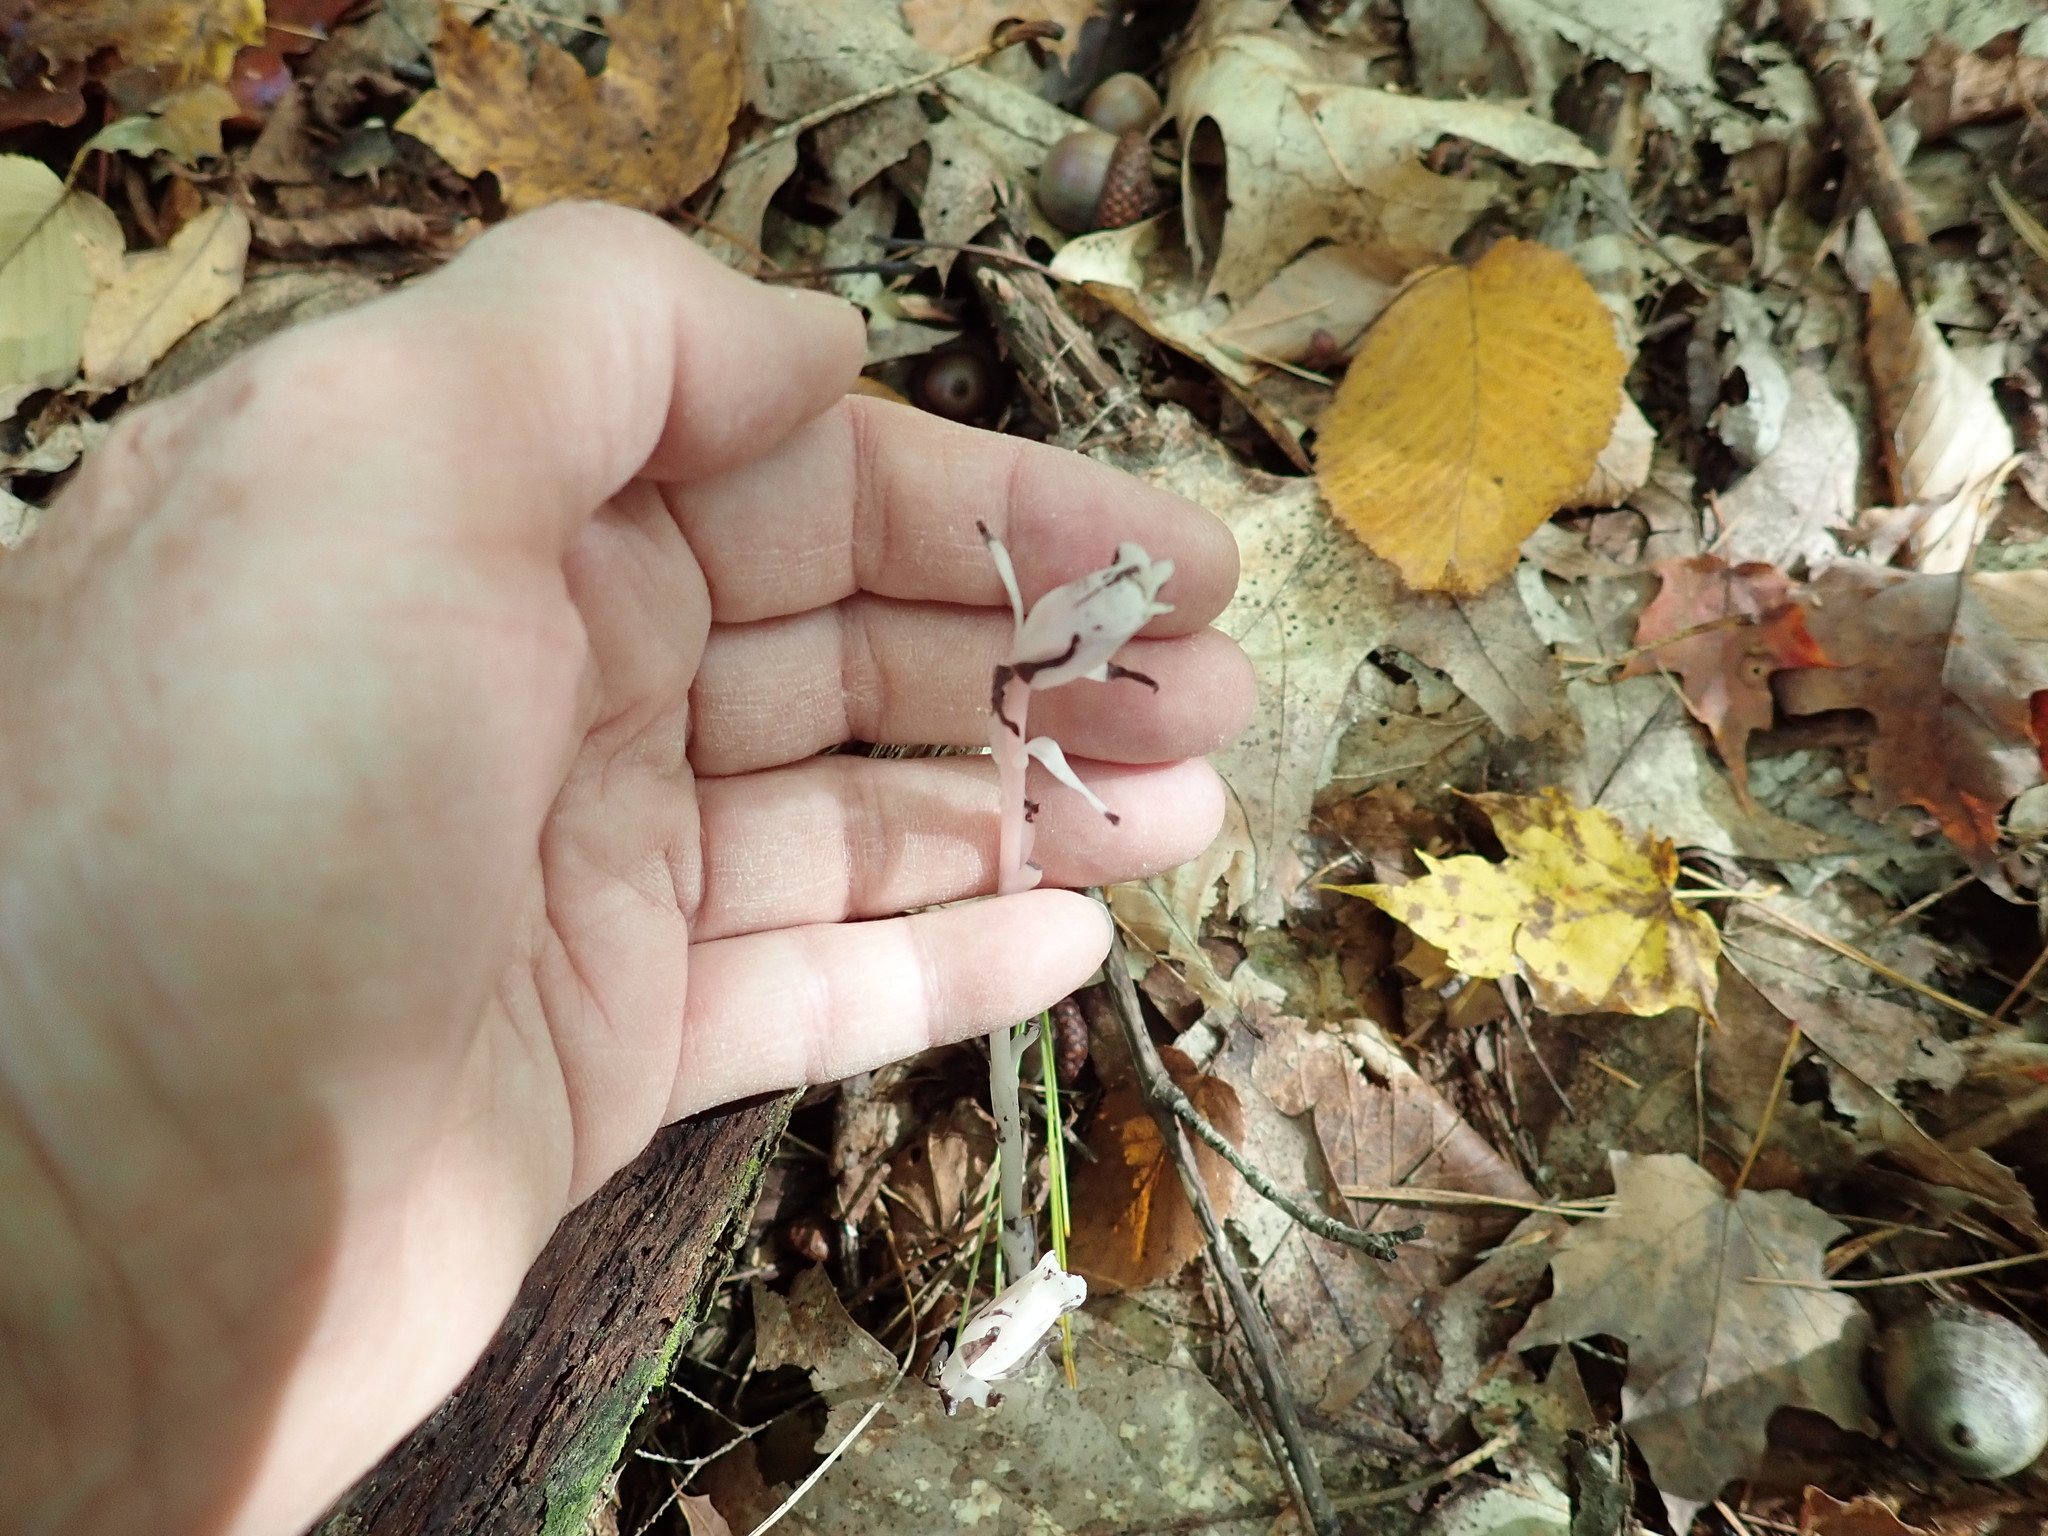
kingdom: Plantae
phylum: Tracheophyta
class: Magnoliopsida
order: Ericales
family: Ericaceae
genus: Monotropa
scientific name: Monotropa uniflora
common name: Convulsion root
